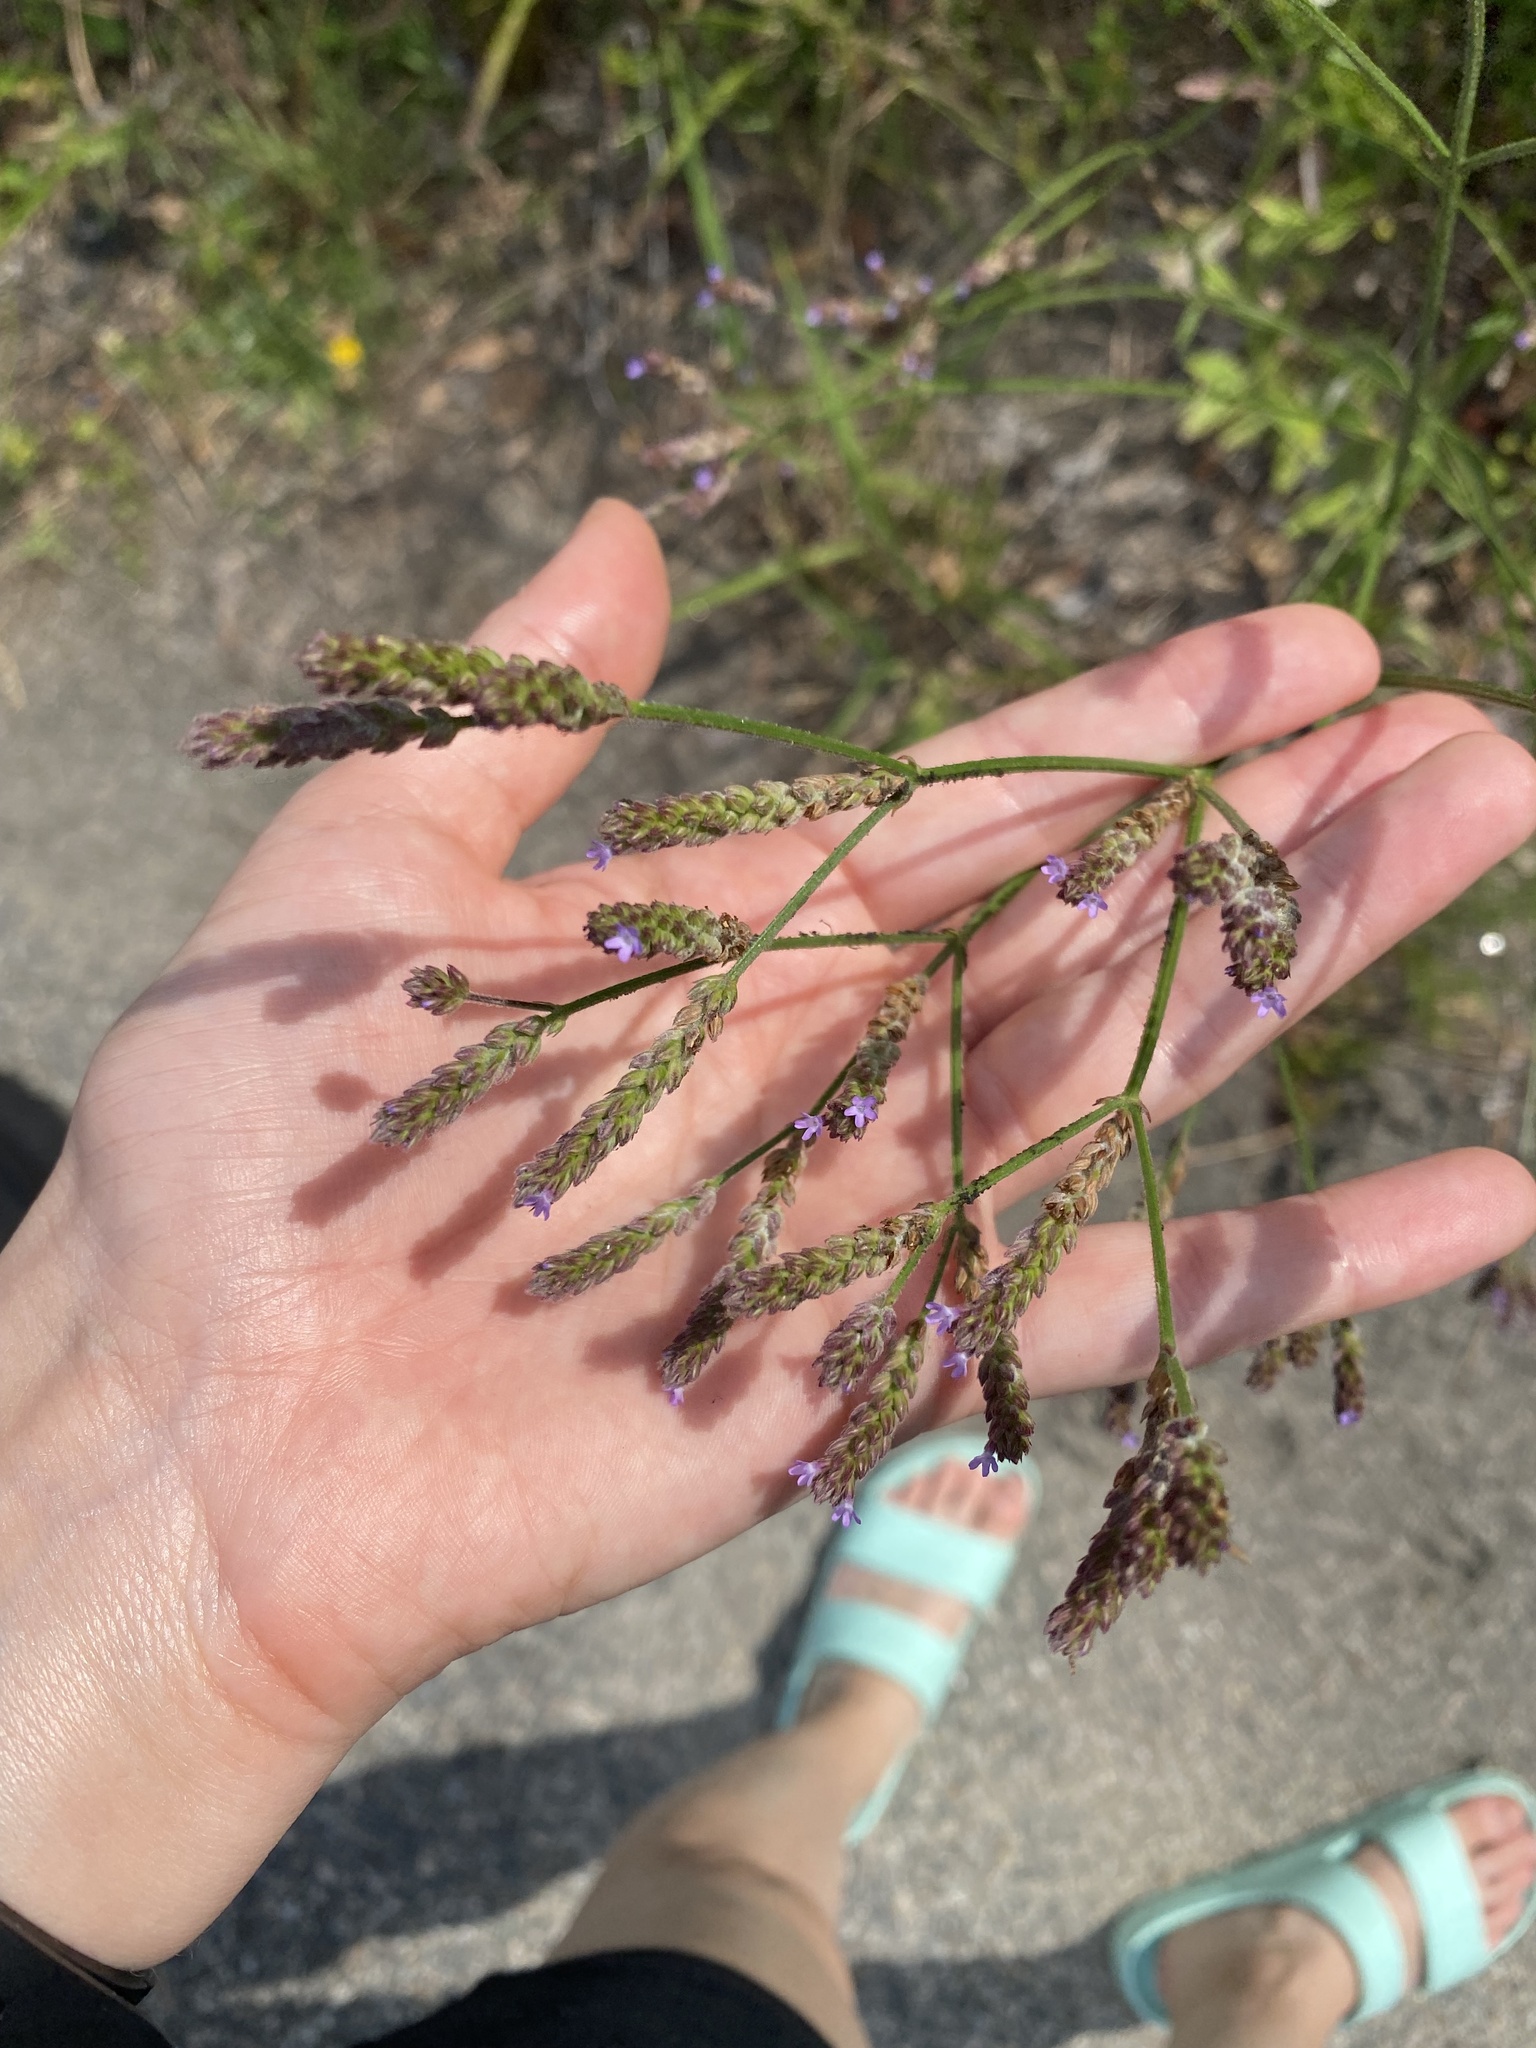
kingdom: Plantae
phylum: Tracheophyta
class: Magnoliopsida
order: Lamiales
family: Verbenaceae
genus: Verbena
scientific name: Verbena brasiliensis
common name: Brazilian vervain
